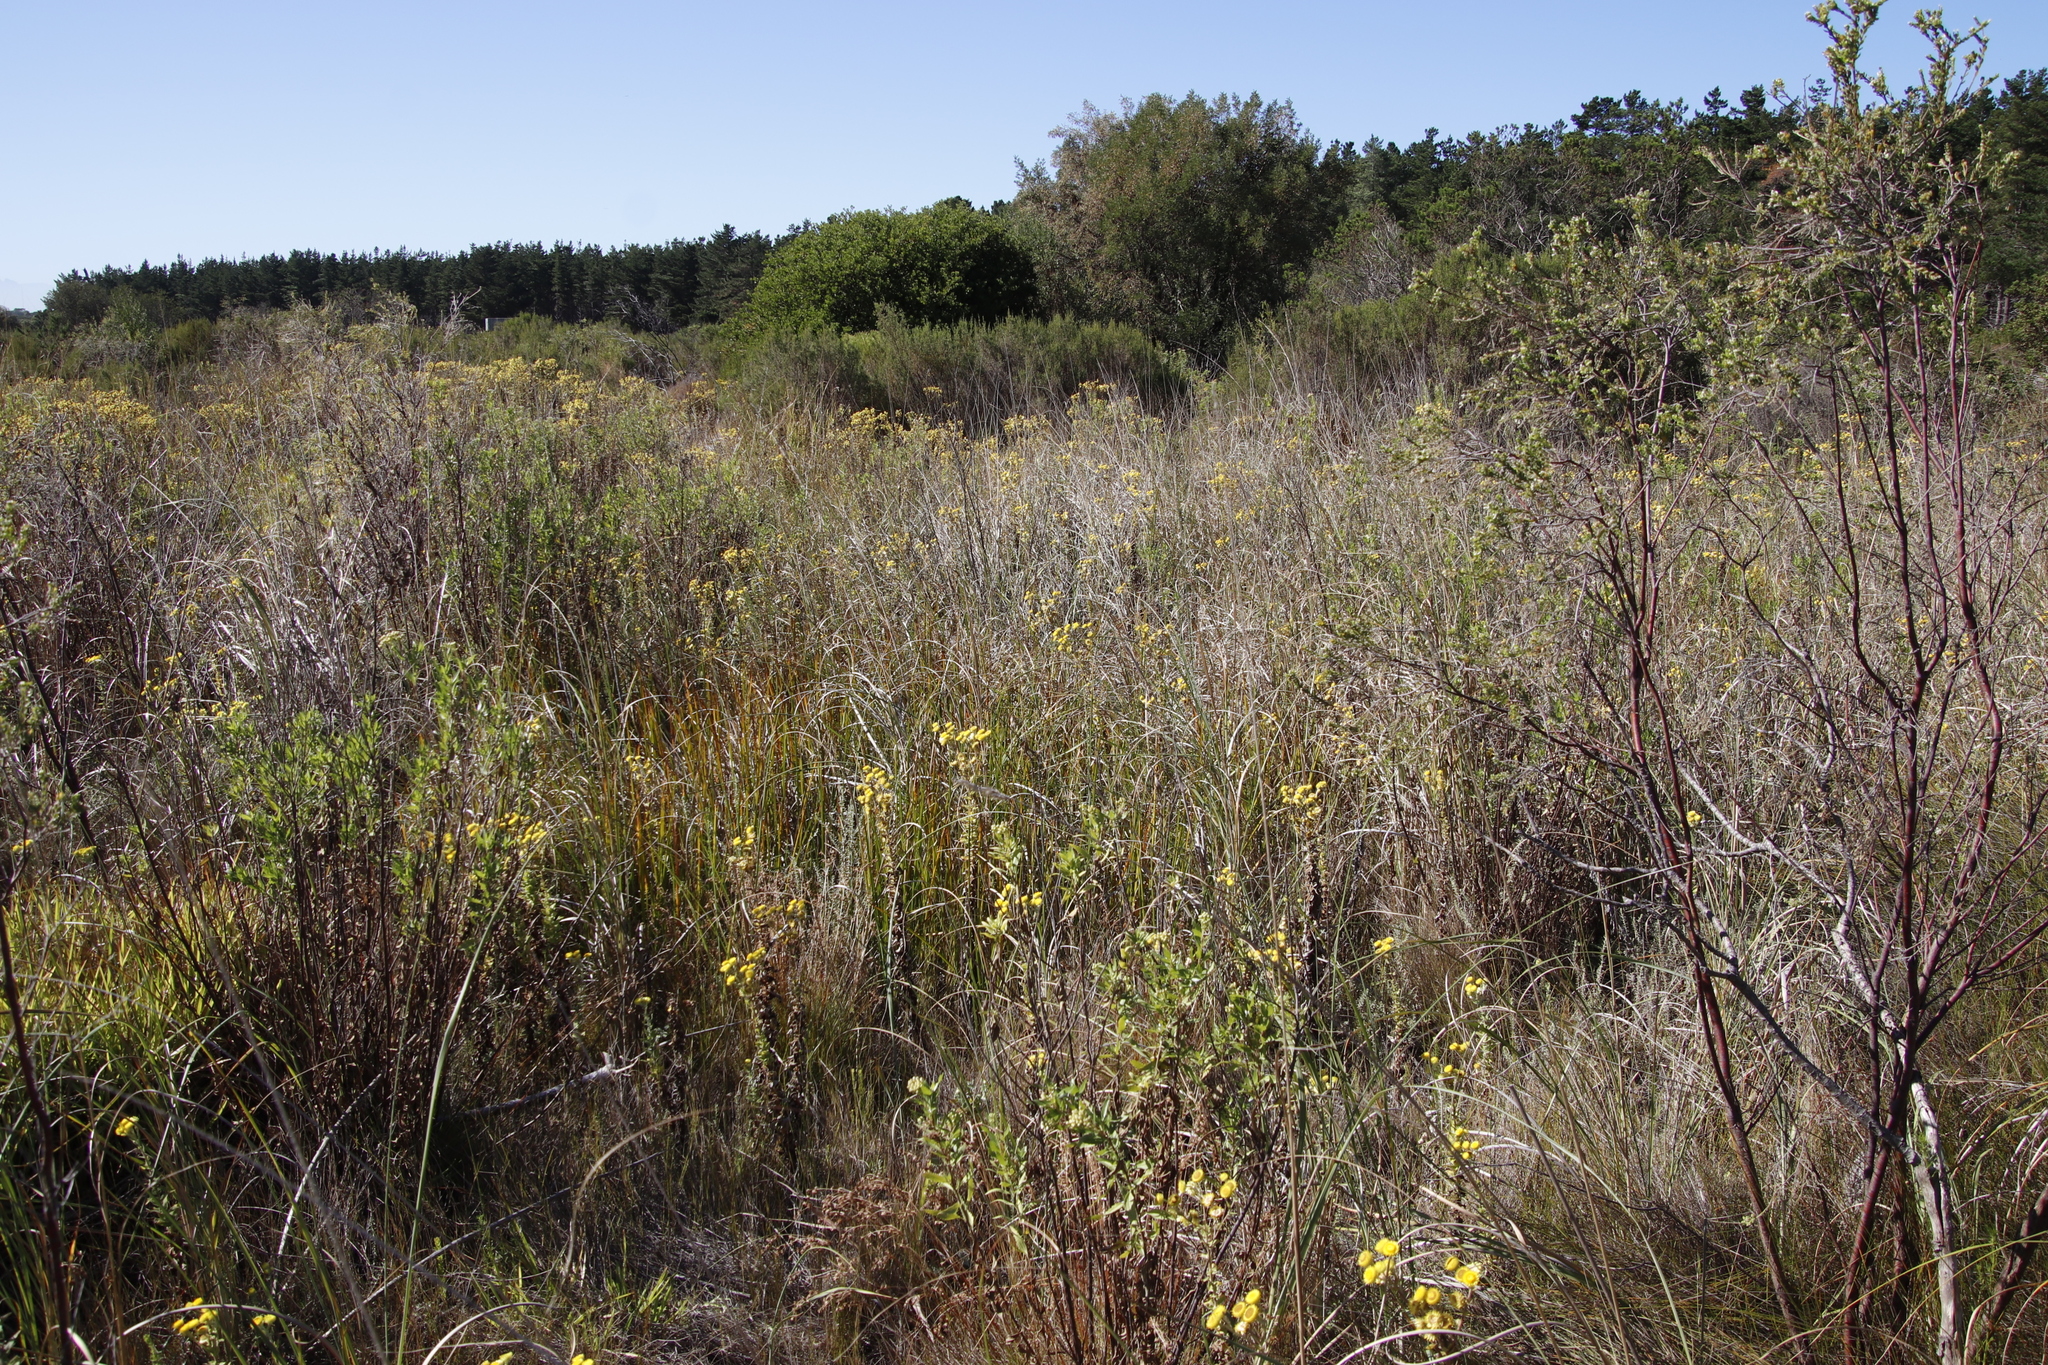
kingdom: Plantae
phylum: Tracheophyta
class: Magnoliopsida
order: Asterales
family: Asteraceae
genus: Helichrysum
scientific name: Helichrysum foetidum
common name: Stinking everlasting
